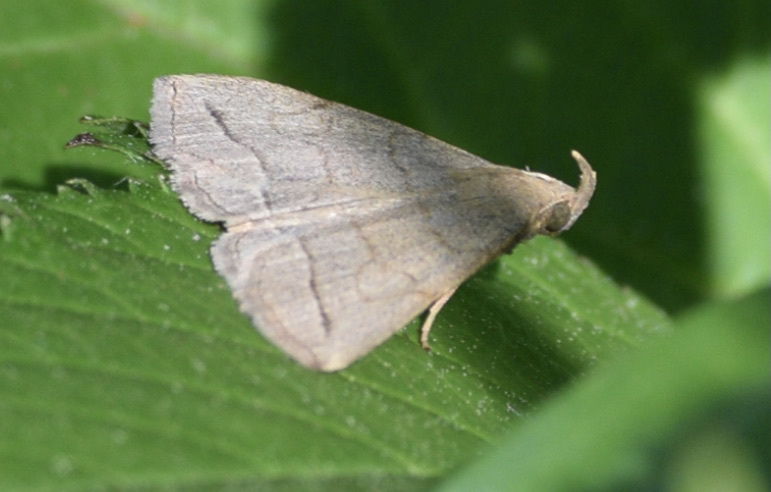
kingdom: Animalia
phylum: Arthropoda
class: Insecta
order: Lepidoptera
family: Erebidae
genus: Zanclognatha
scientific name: Zanclognatha pedipilalis
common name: Grayish fan-foot
